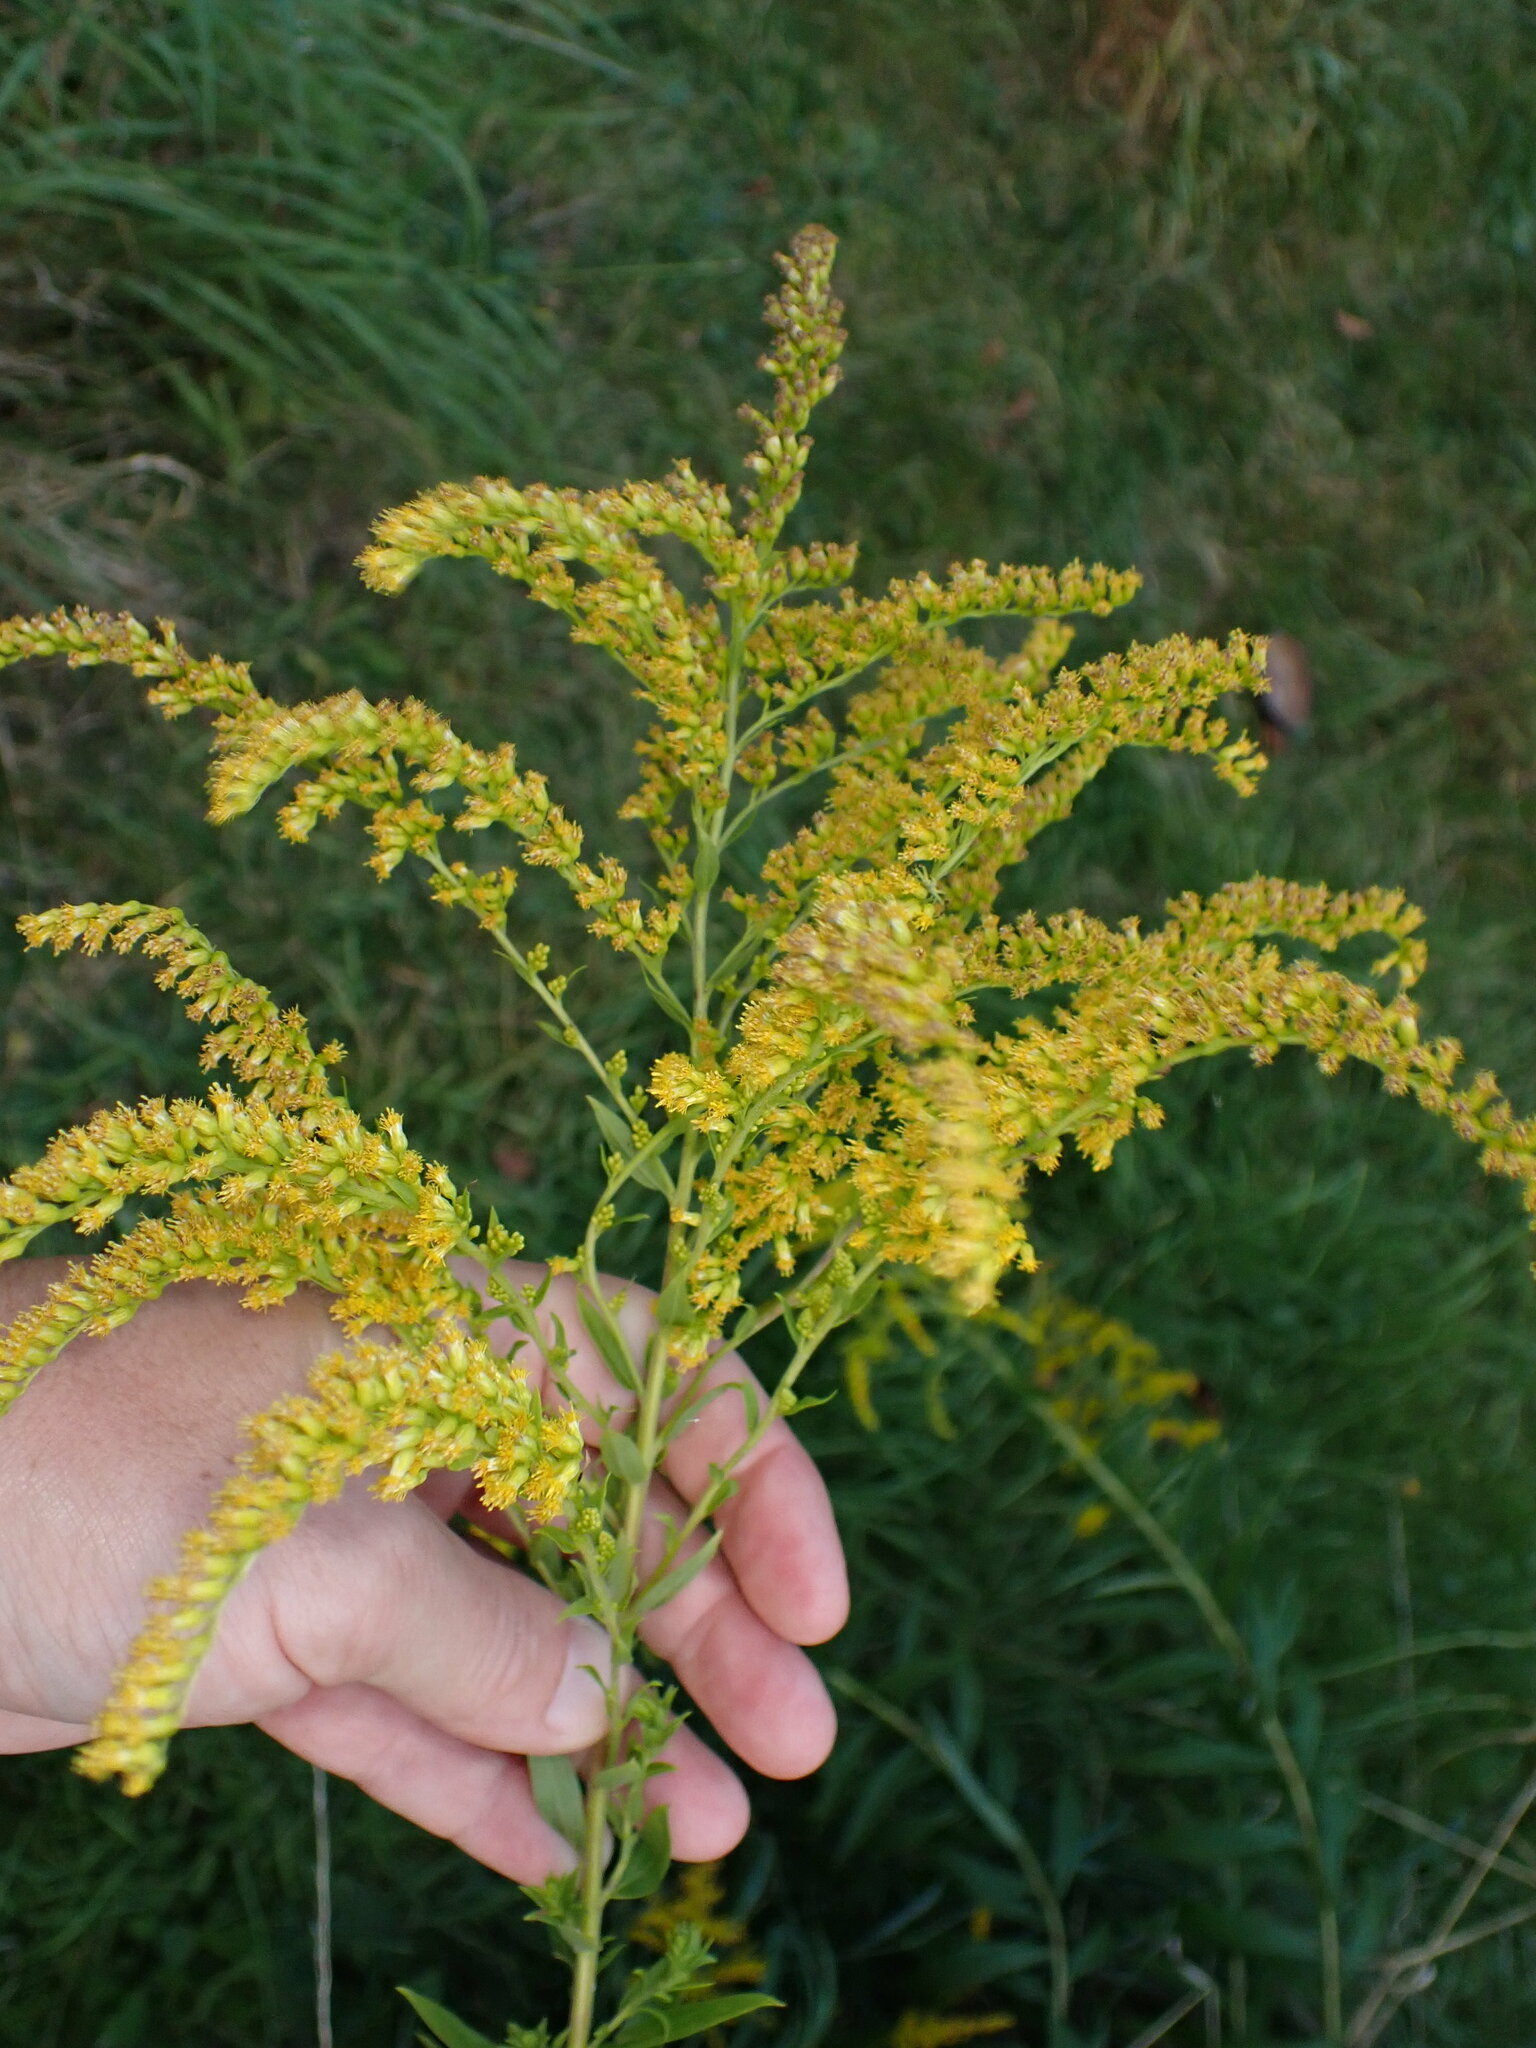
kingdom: Plantae
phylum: Tracheophyta
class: Magnoliopsida
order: Asterales
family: Asteraceae
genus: Solidago
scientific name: Solidago canadensis
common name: Canada goldenrod
